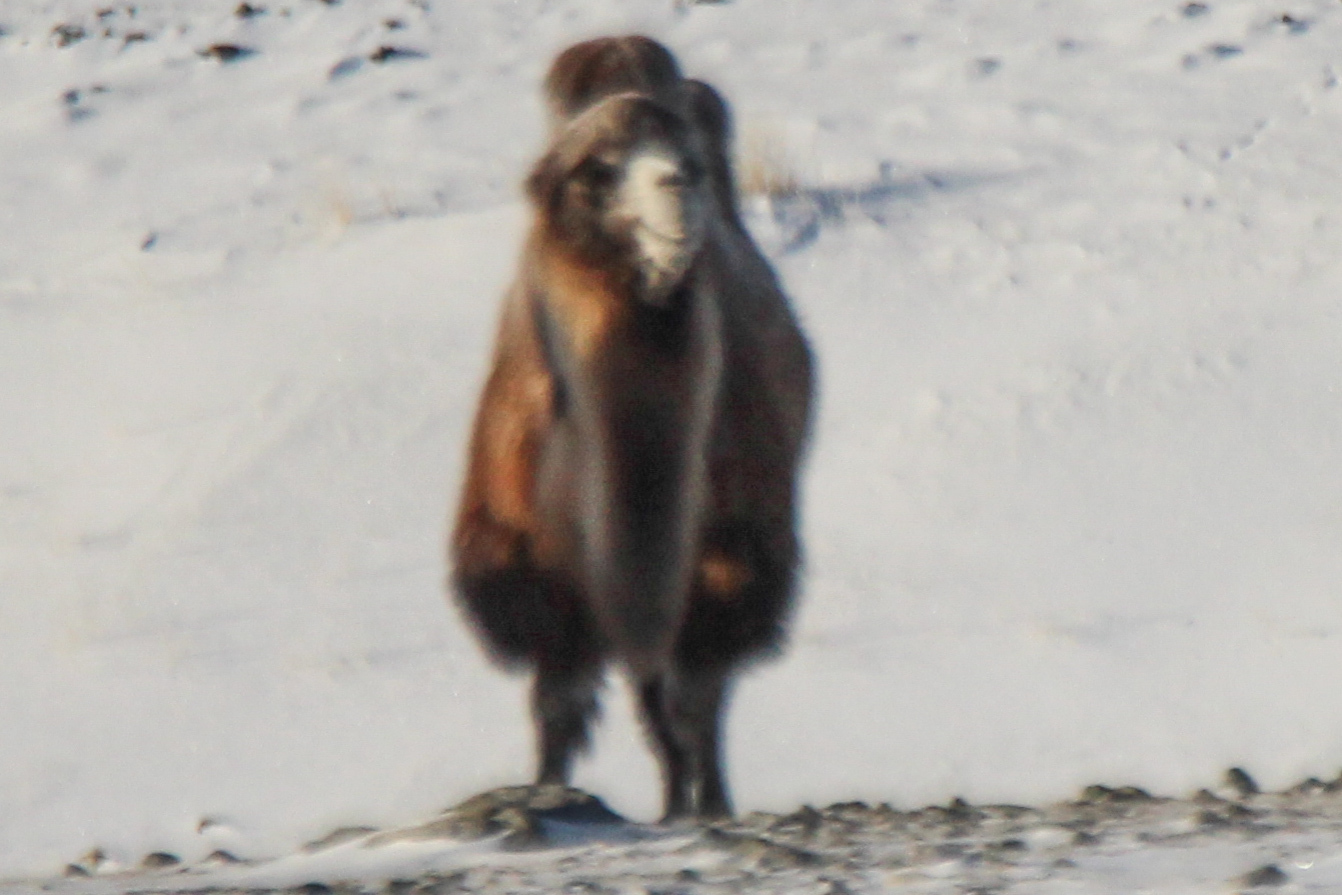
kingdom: Animalia
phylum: Chordata
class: Mammalia
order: Artiodactyla
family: Camelidae
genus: Camelus
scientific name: Camelus bactrianus
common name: Bactrian camel
